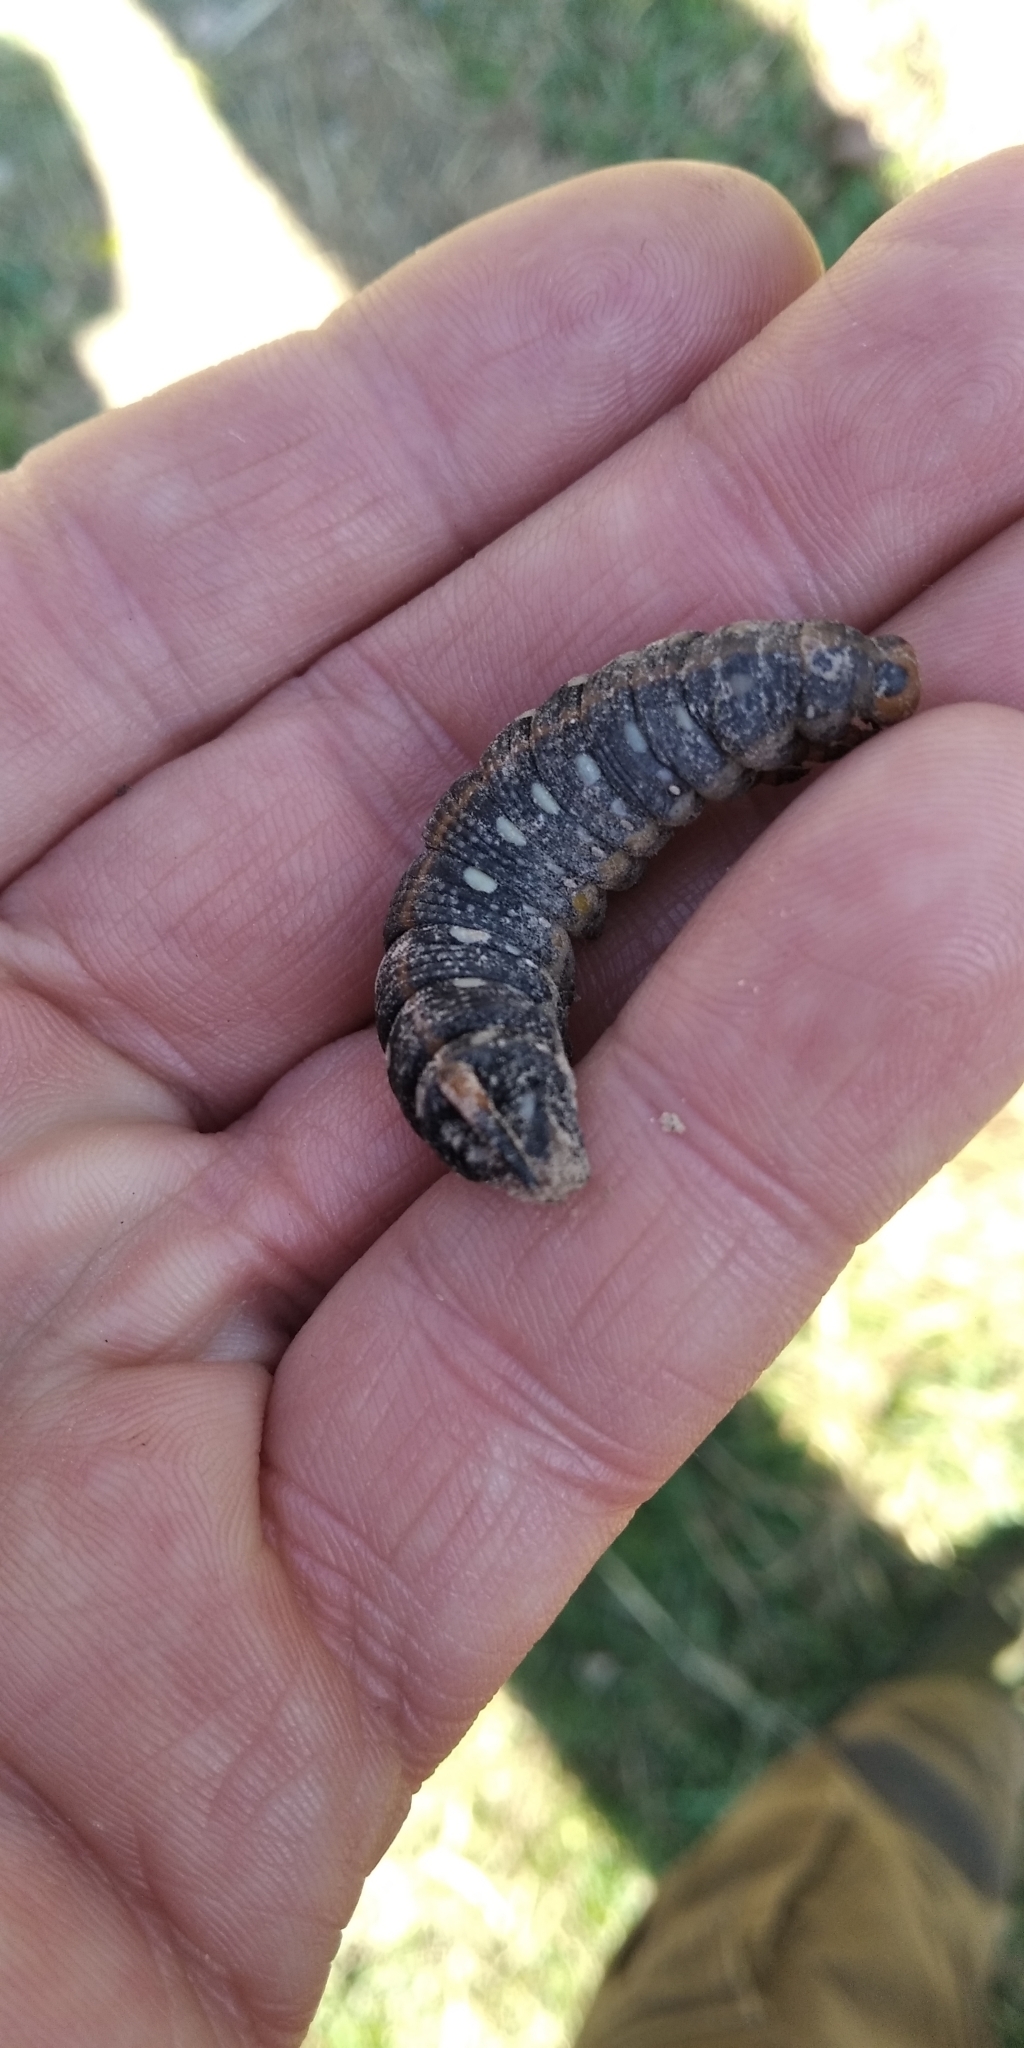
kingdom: Animalia
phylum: Arthropoda
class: Insecta
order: Lepidoptera
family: Sphingidae
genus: Hyles
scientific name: Hyles gallii
